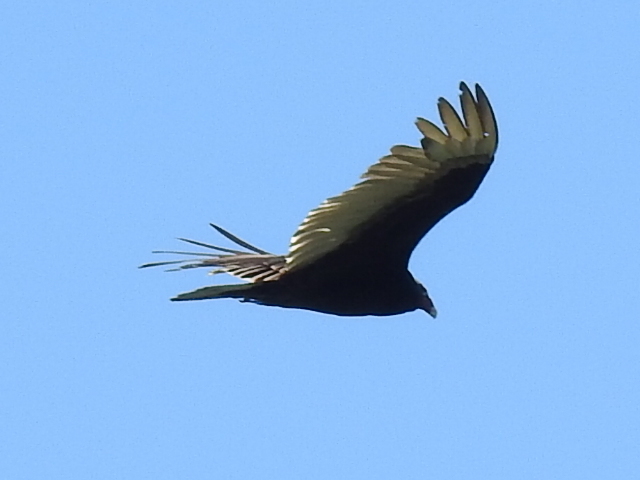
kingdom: Animalia
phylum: Chordata
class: Aves
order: Accipitriformes
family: Cathartidae
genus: Cathartes
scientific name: Cathartes aura
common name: Turkey vulture
